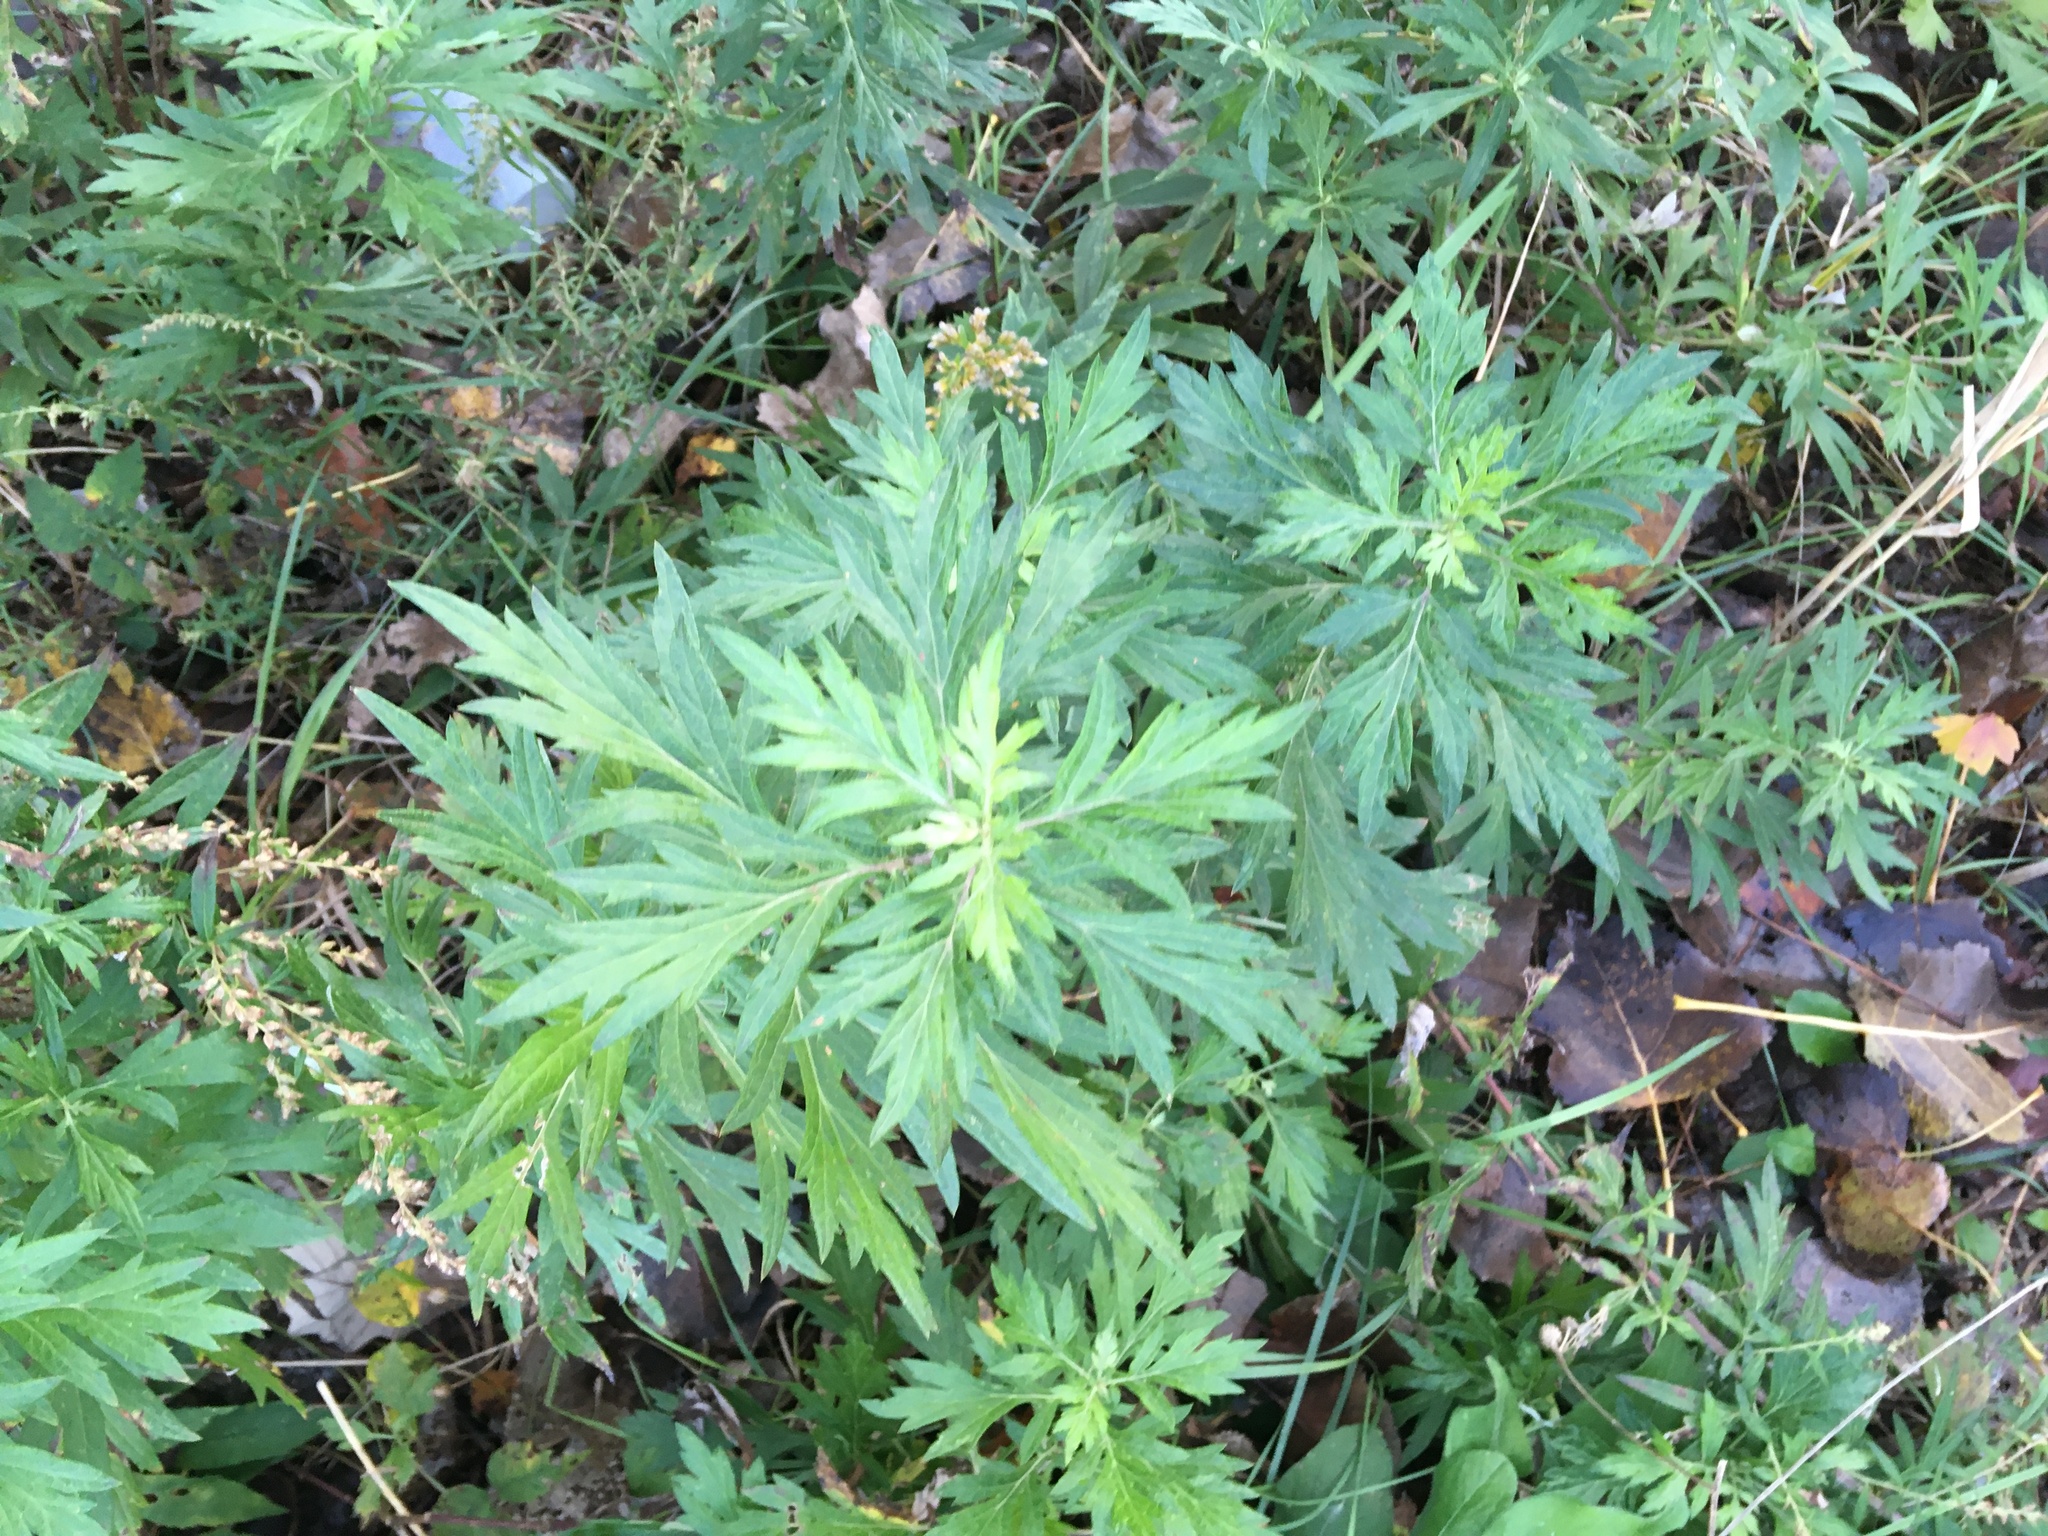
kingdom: Plantae
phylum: Tracheophyta
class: Magnoliopsida
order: Asterales
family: Asteraceae
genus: Artemisia
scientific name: Artemisia vulgaris
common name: Mugwort
